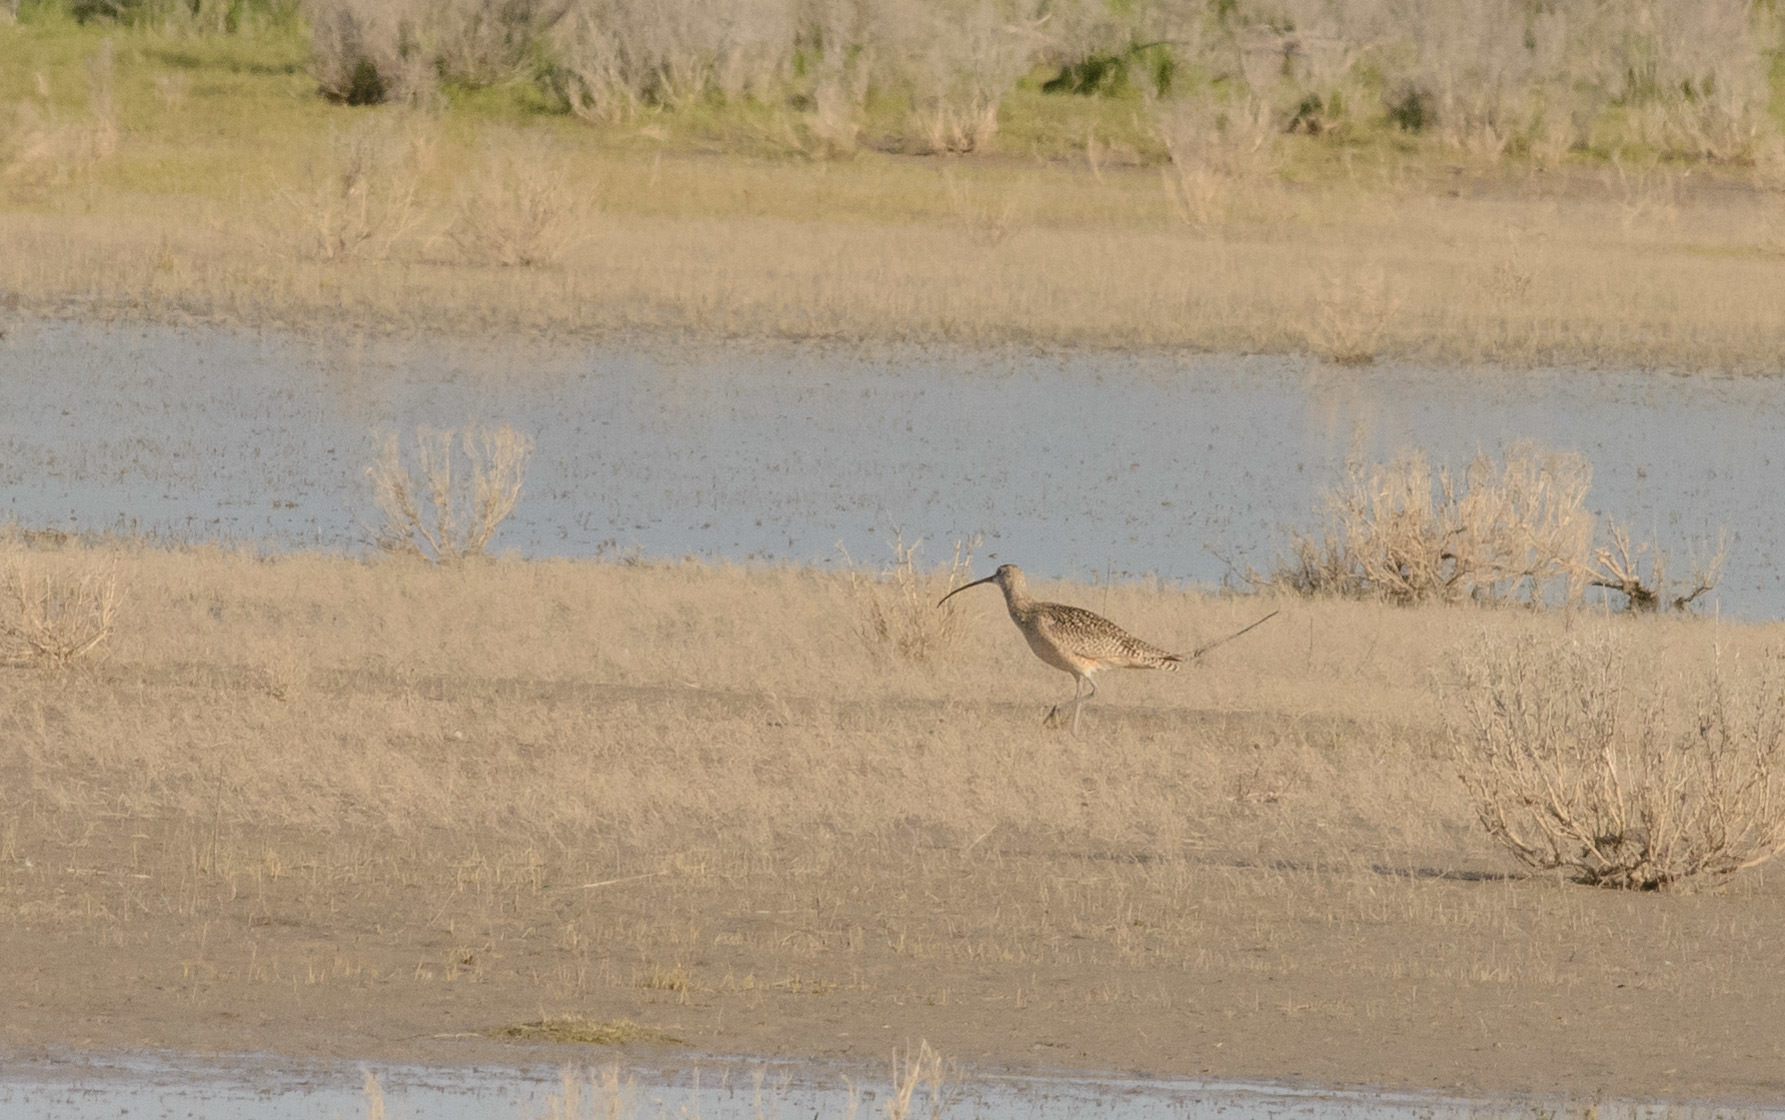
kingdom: Animalia
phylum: Chordata
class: Aves
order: Charadriiformes
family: Scolopacidae
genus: Numenius
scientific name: Numenius americanus
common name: Long-billed curlew
